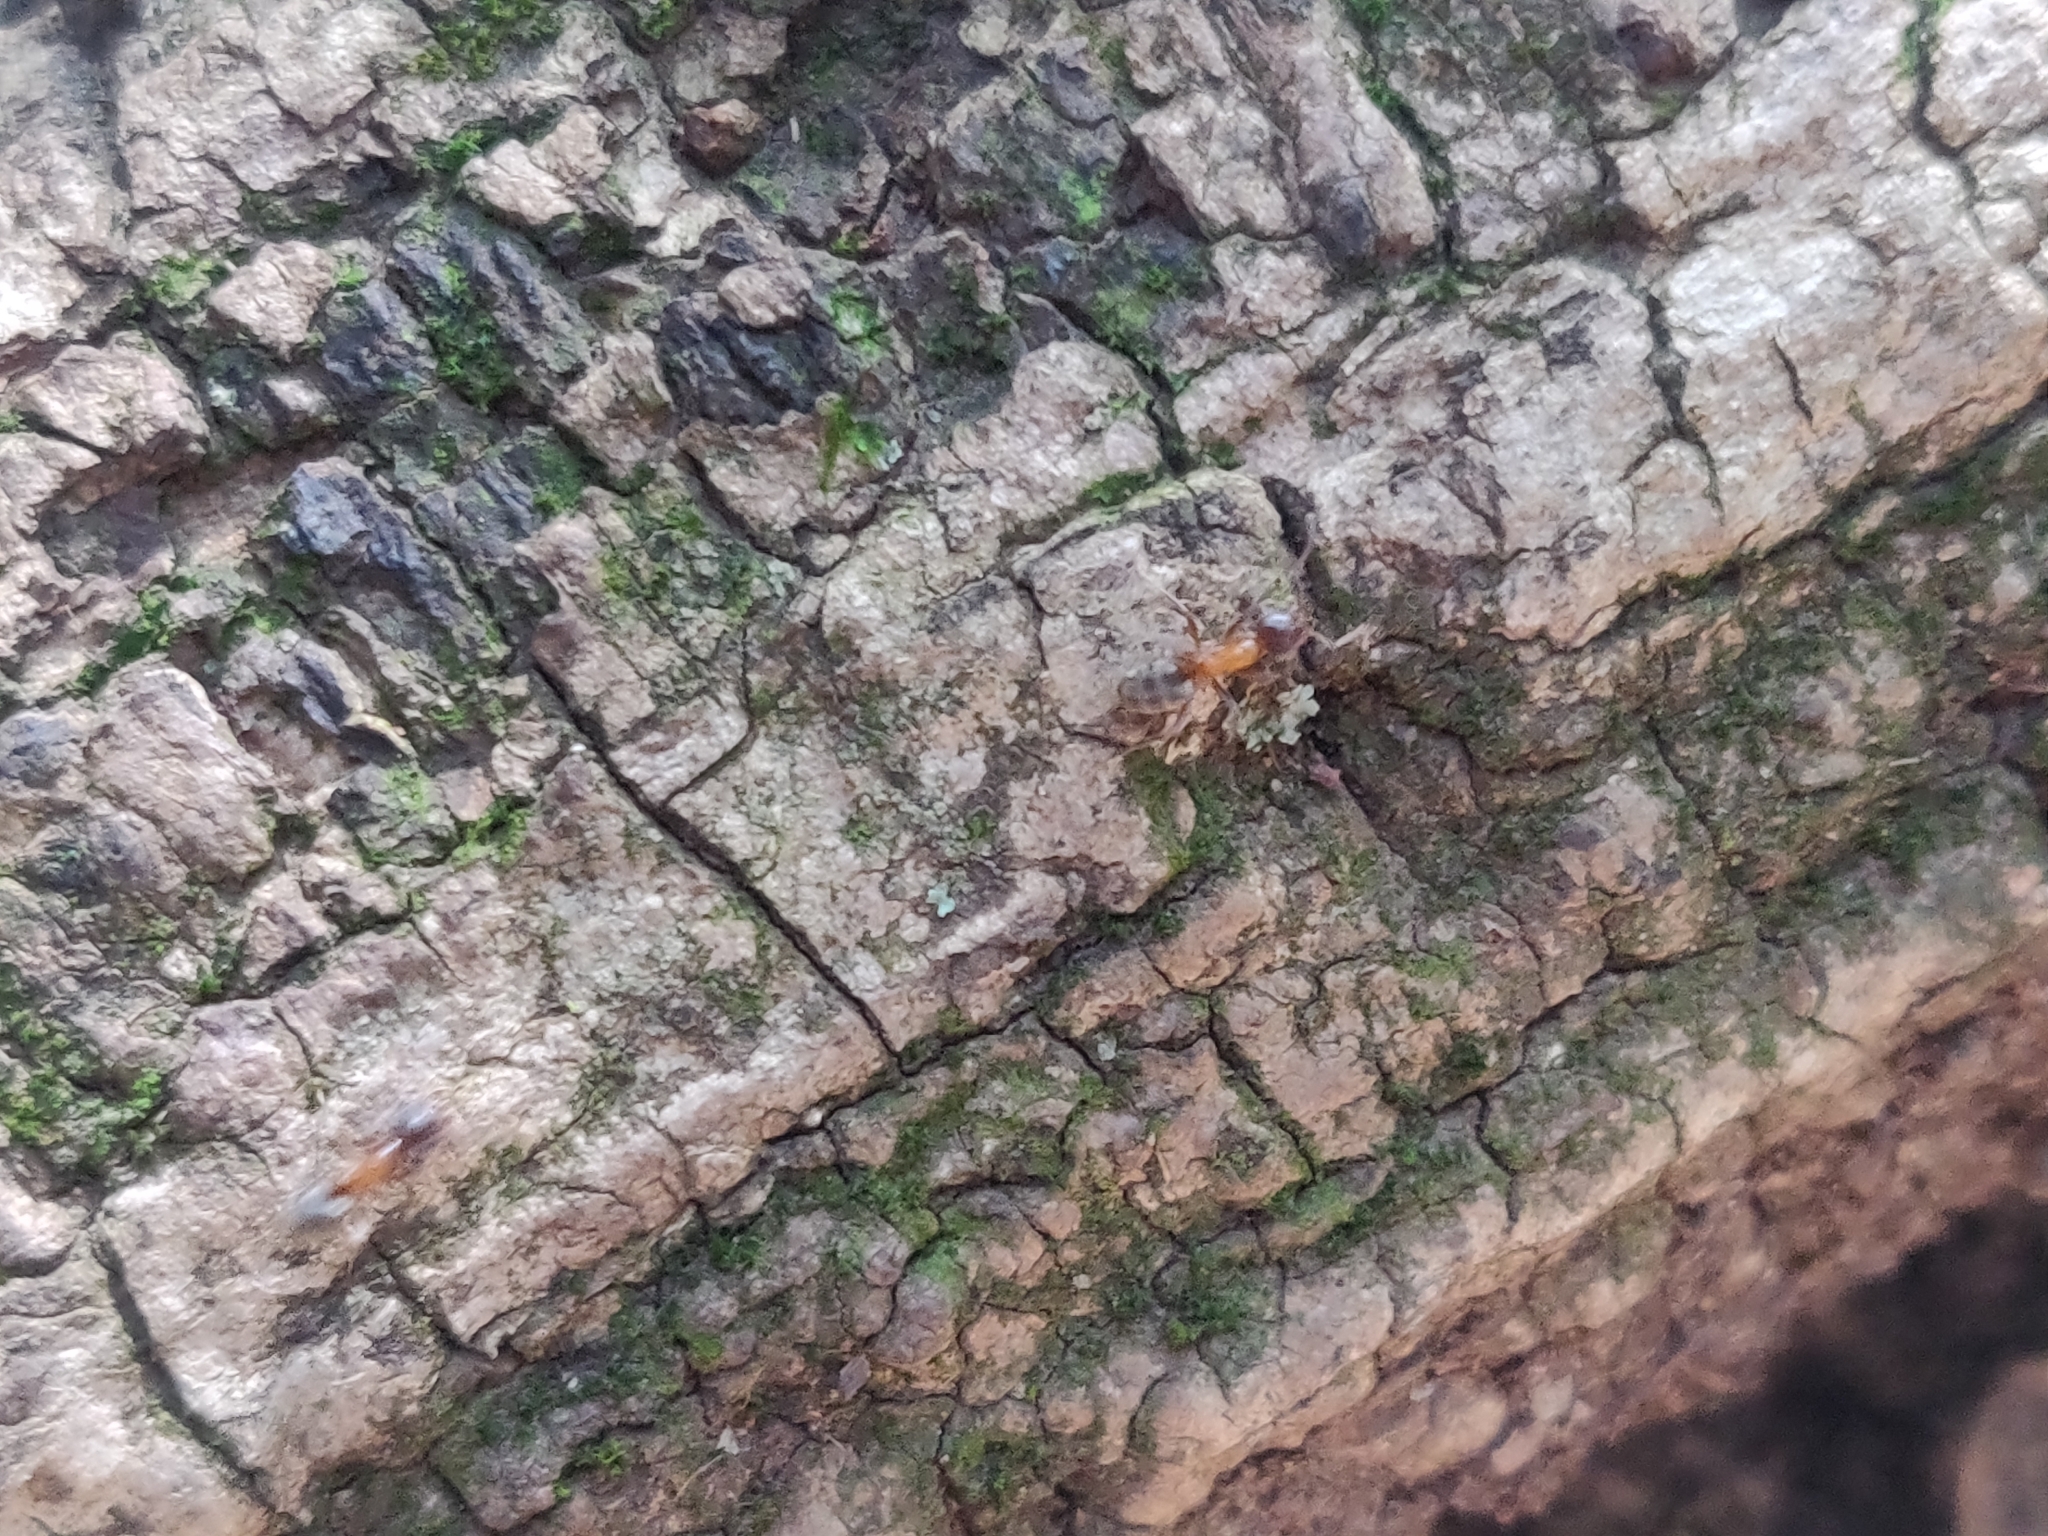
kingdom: Animalia
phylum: Arthropoda
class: Insecta
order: Hymenoptera
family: Formicidae
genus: Liometopum
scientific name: Liometopum occidentale
